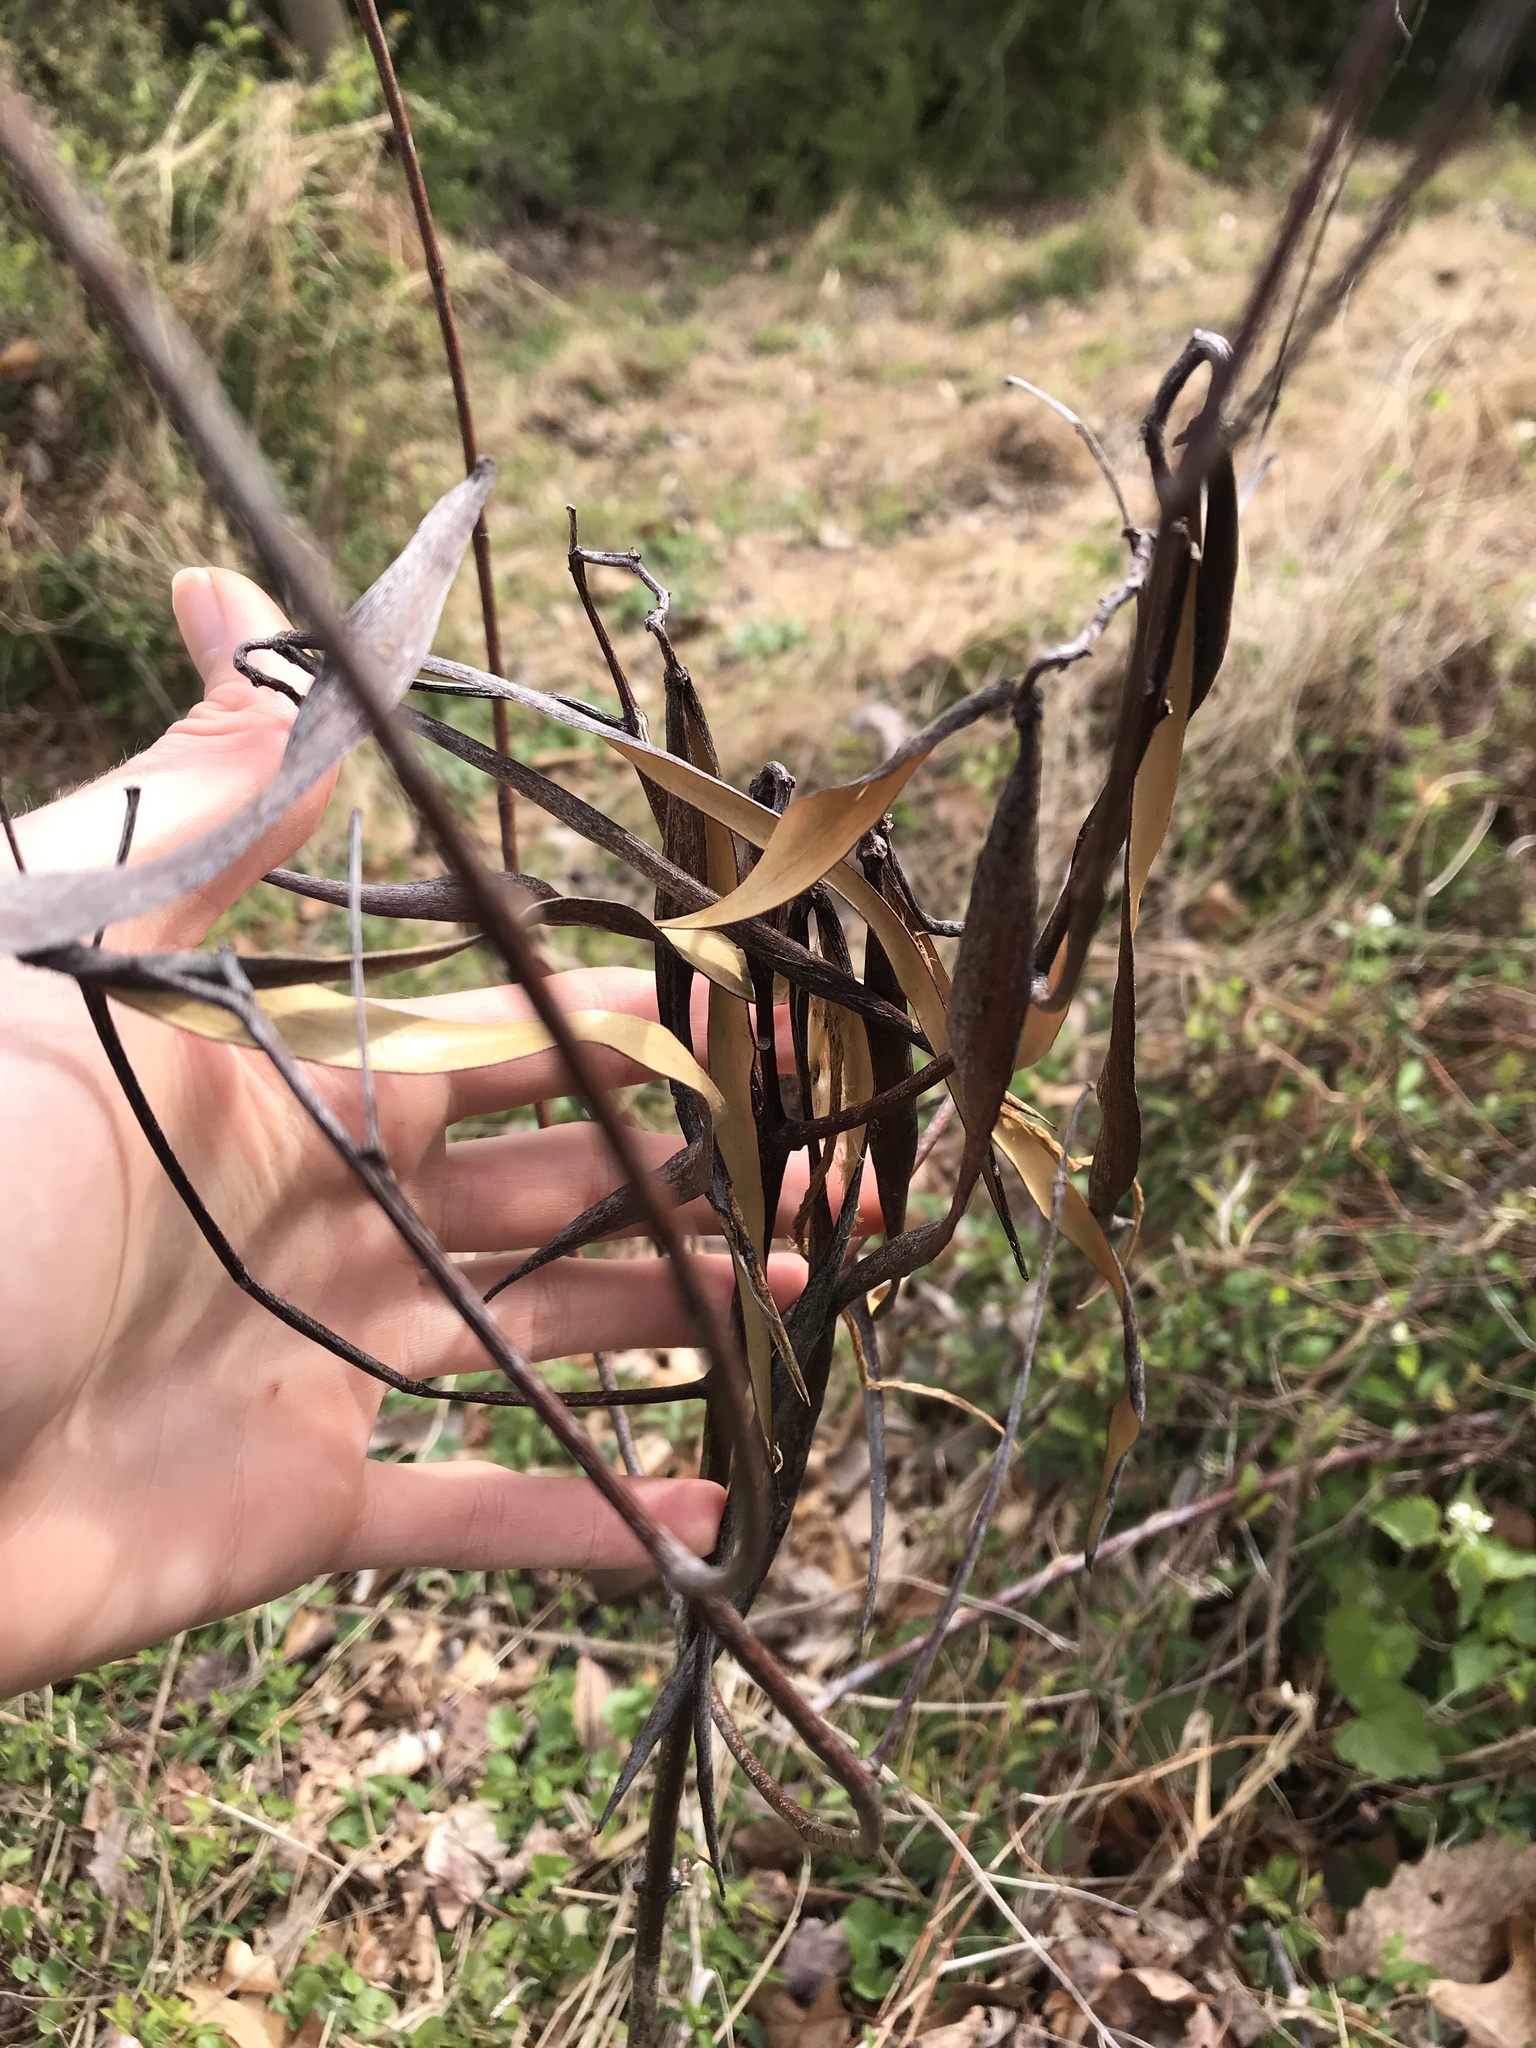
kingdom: Plantae
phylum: Tracheophyta
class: Magnoliopsida
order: Gentianales
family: Apocynaceae
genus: Apocynum
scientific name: Apocynum cannabinum
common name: Hemp dogbane
